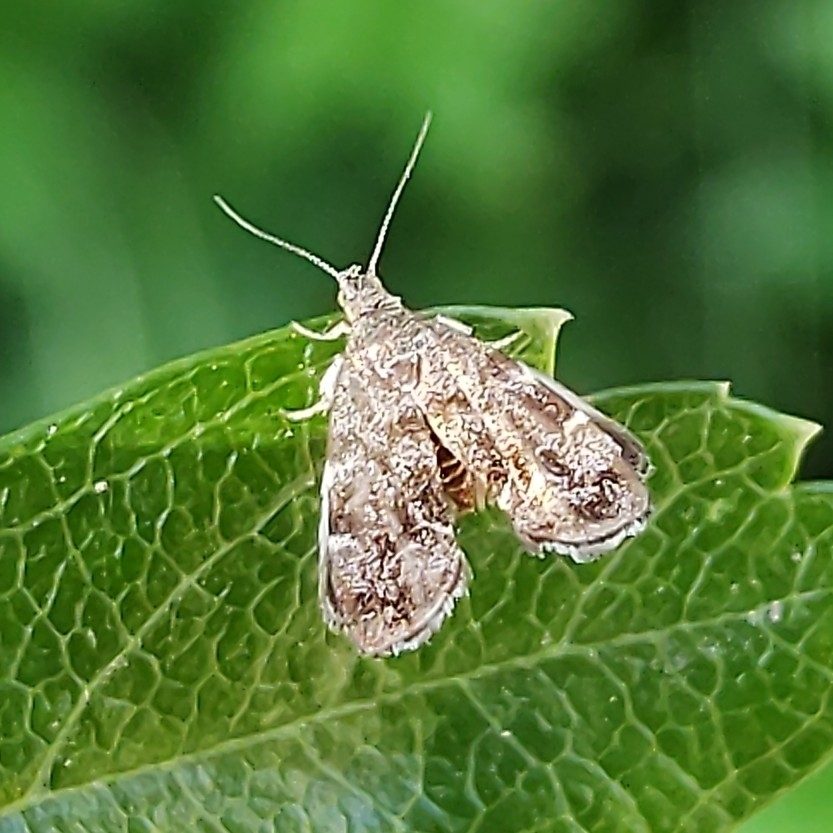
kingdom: Animalia
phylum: Arthropoda
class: Insecta
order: Lepidoptera
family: Choreutidae
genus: Anthophila
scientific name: Anthophila fabriciana
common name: Nettle-tap
